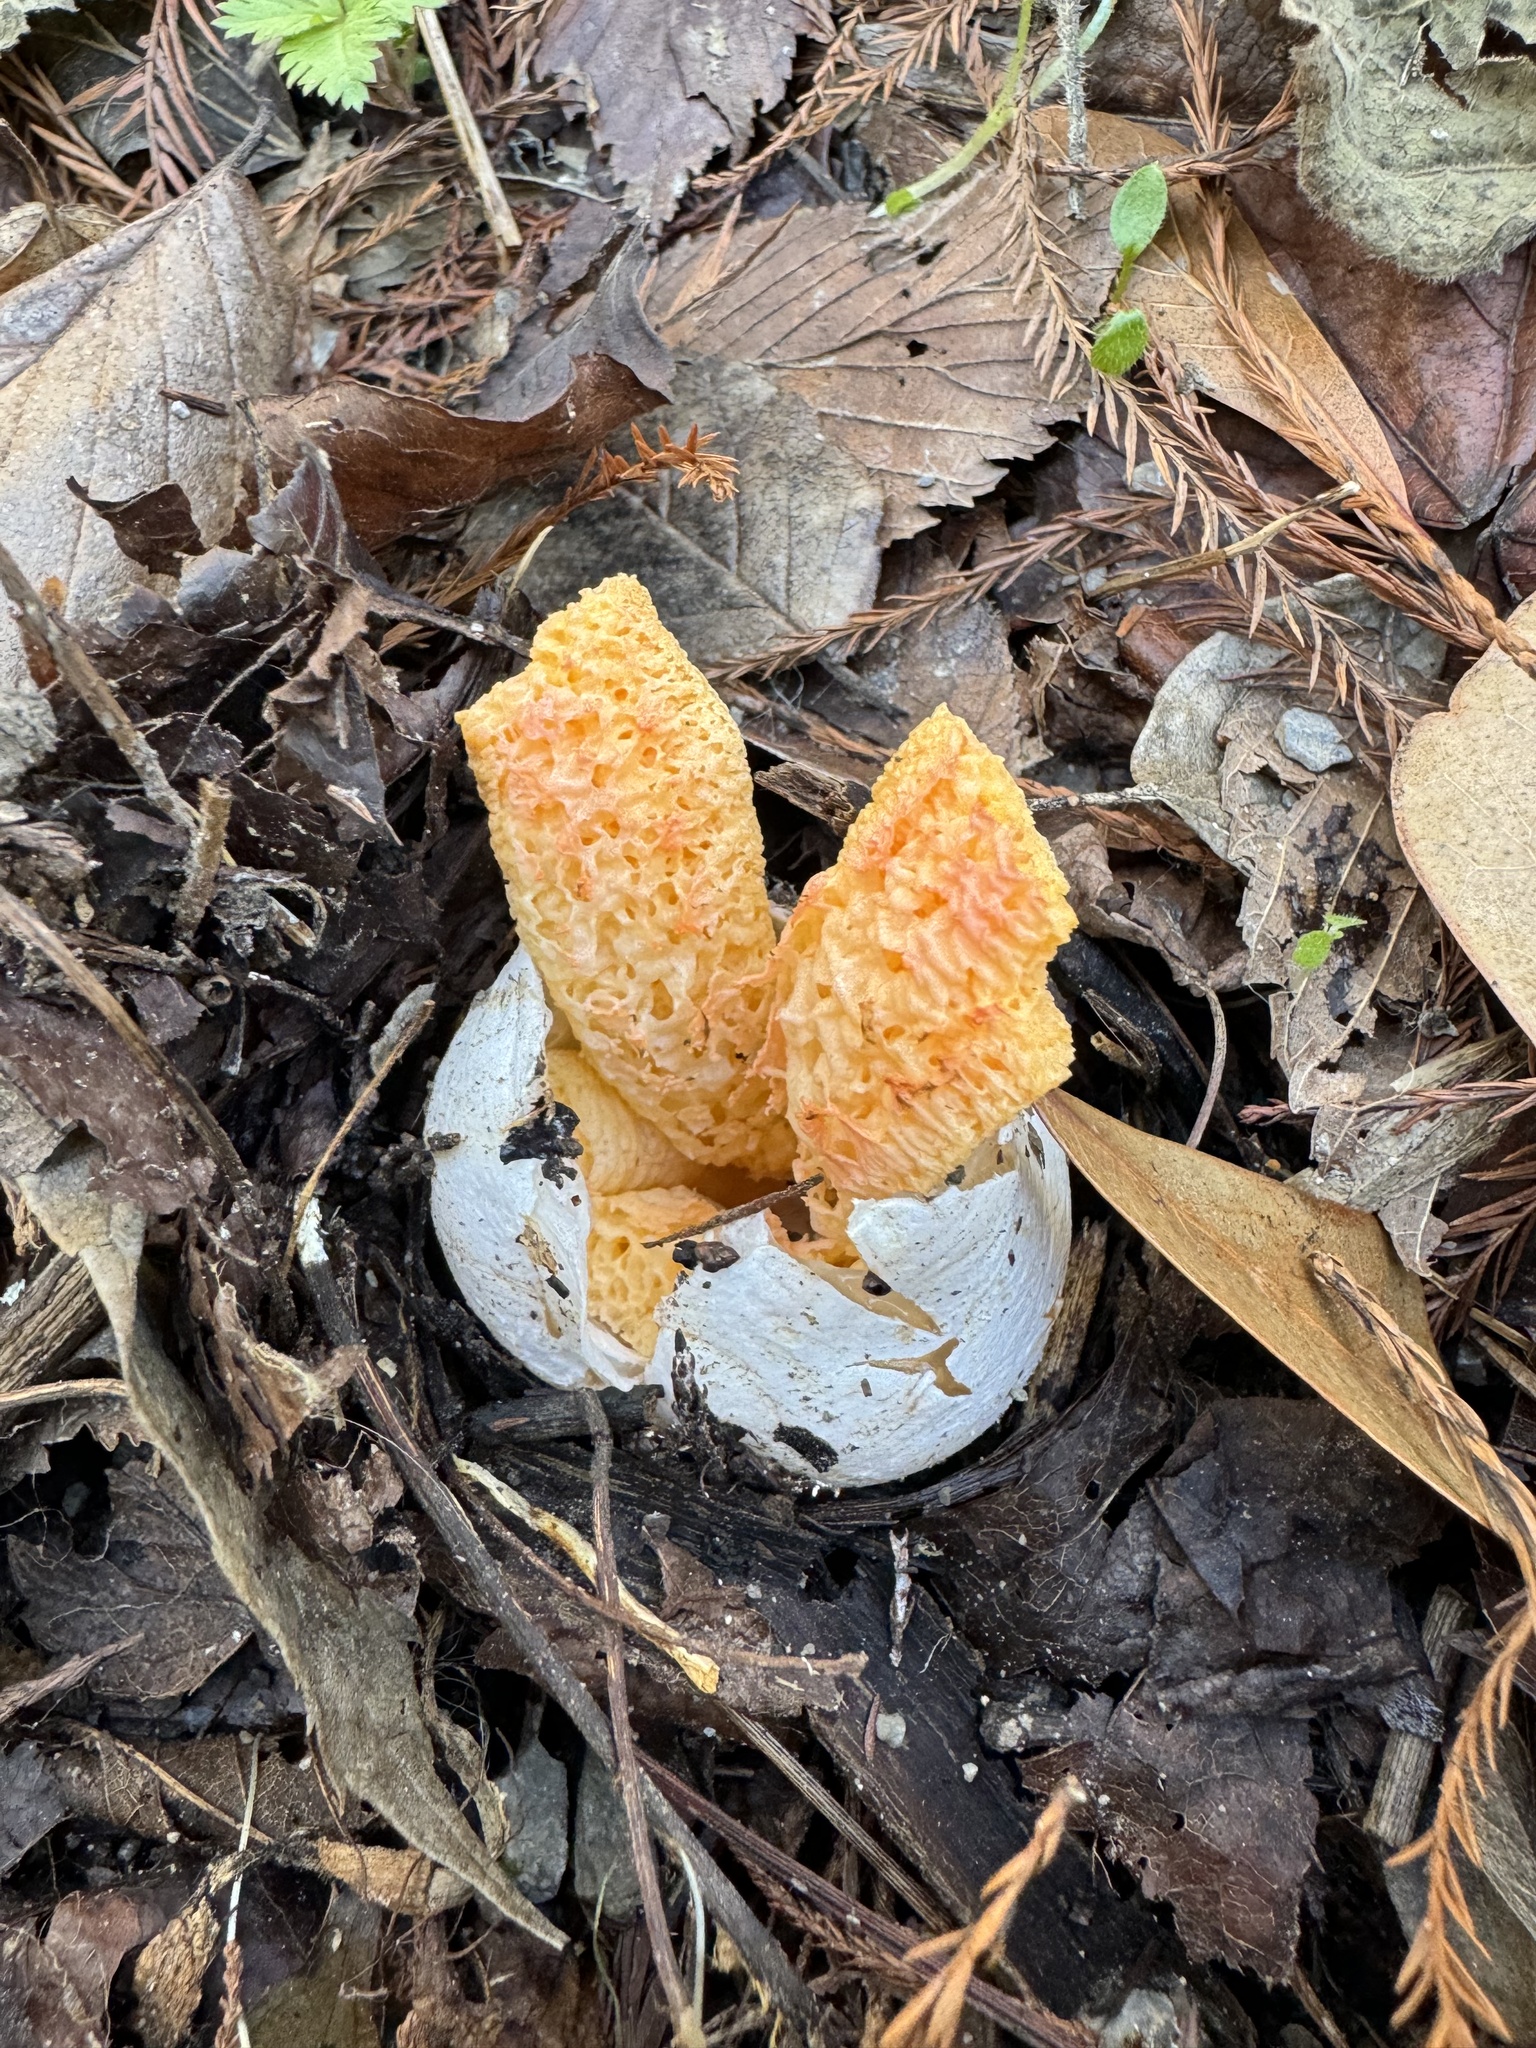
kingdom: Fungi
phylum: Basidiomycota
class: Agaricomycetes
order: Phallales
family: Phallaceae
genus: Clathrus
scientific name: Clathrus columnatus
